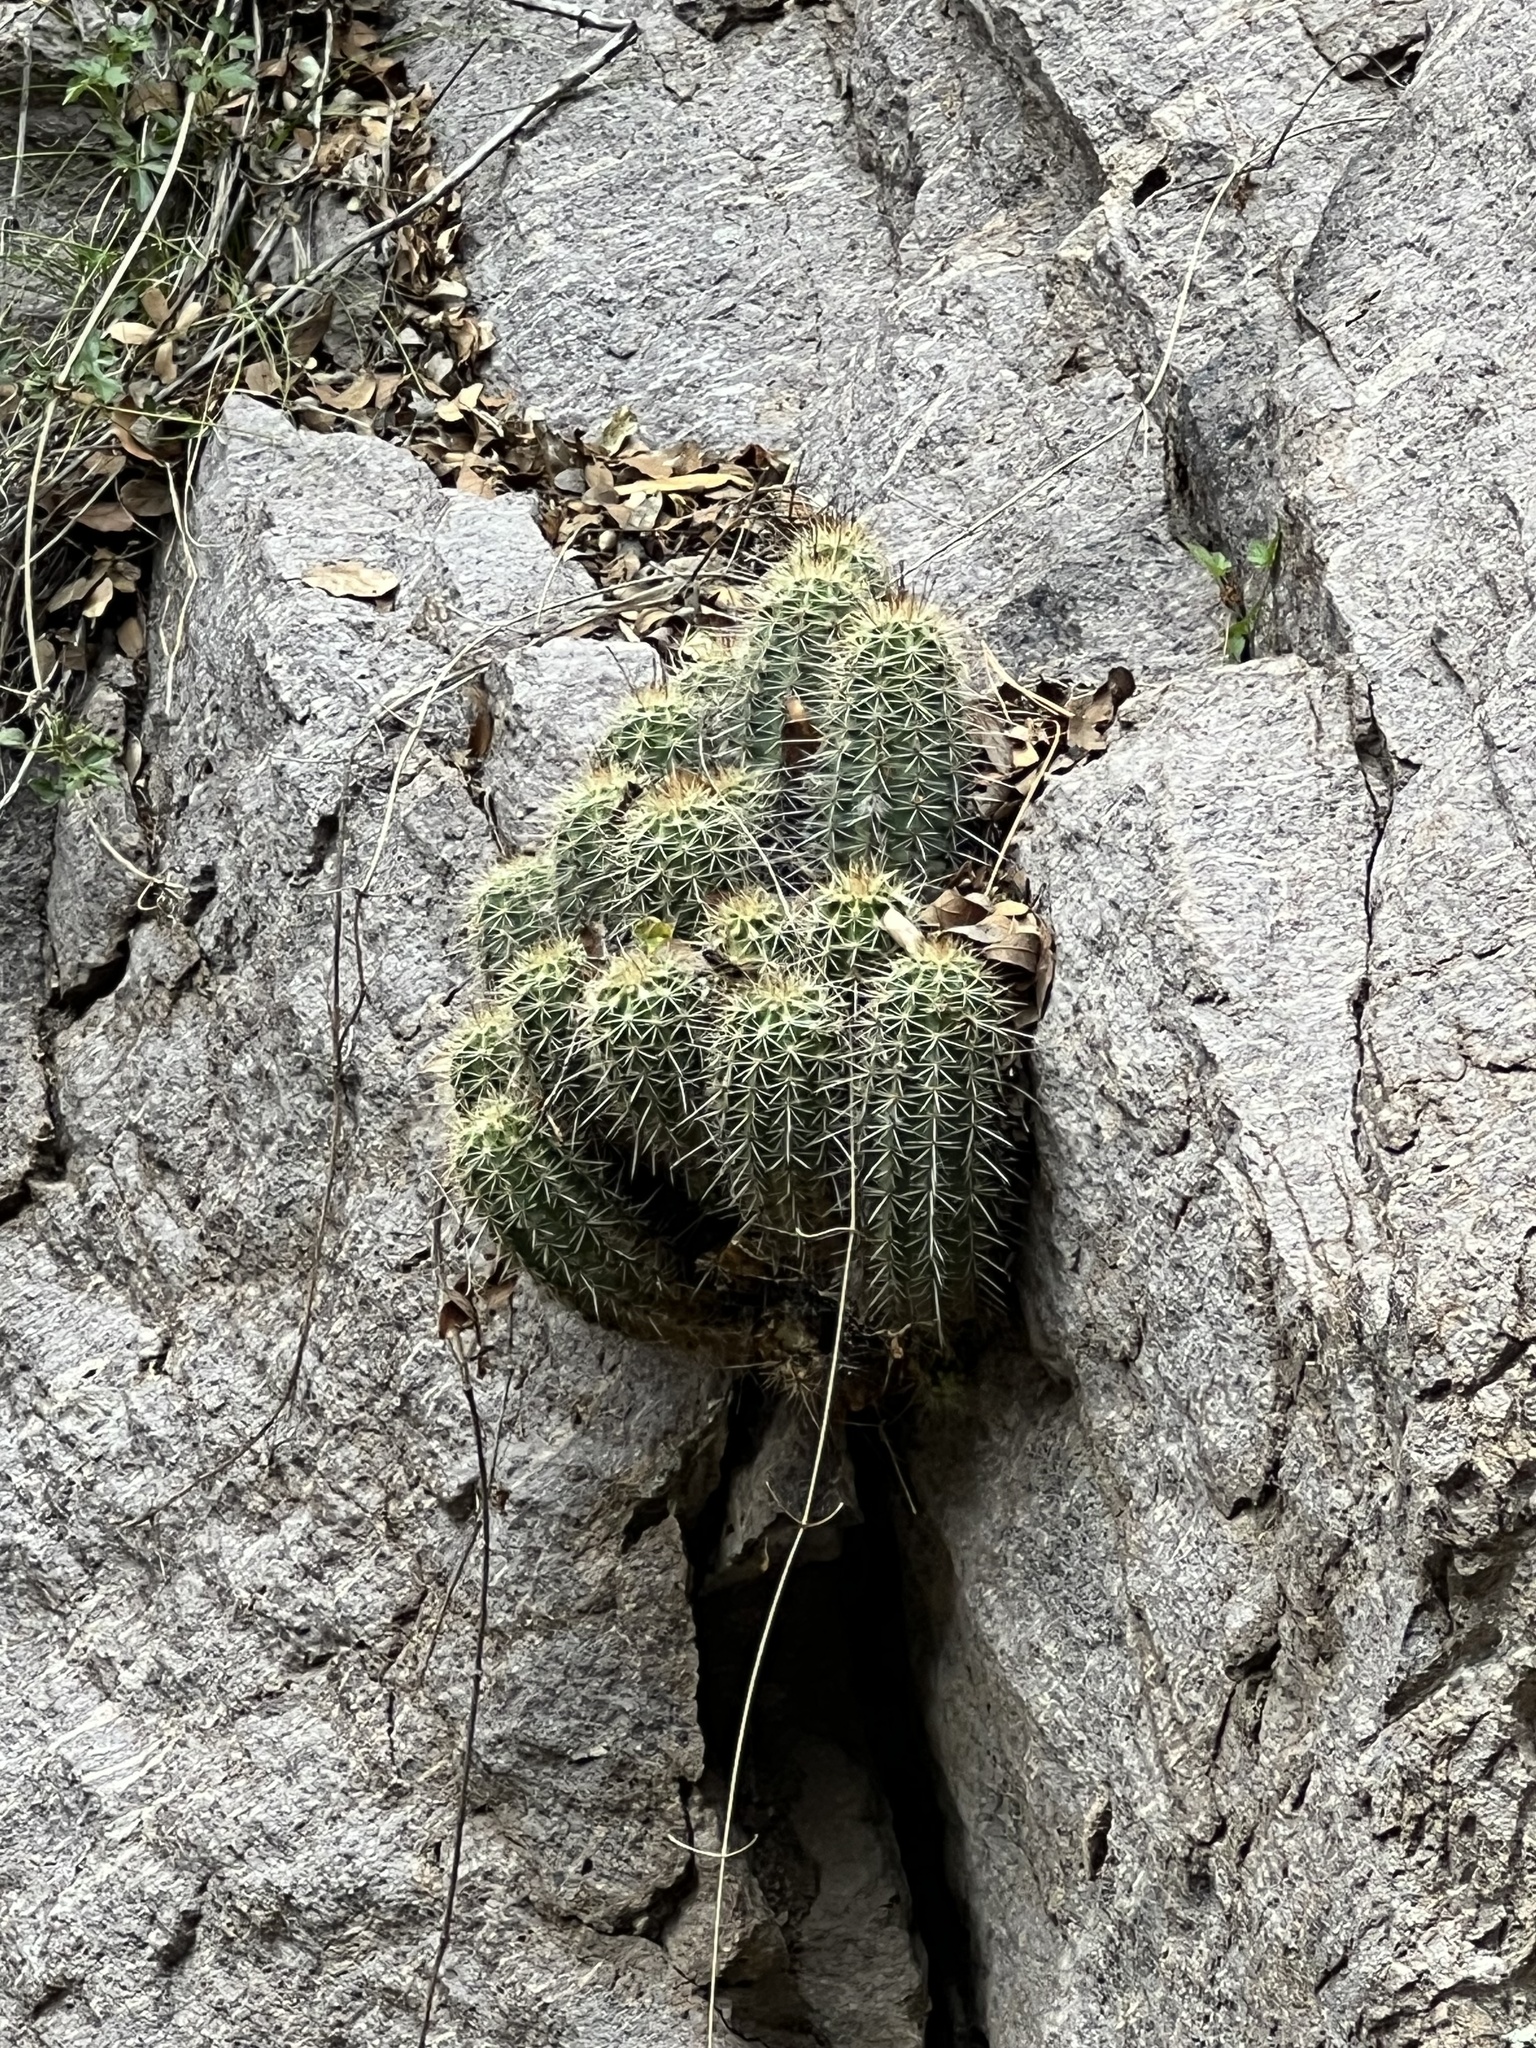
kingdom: Plantae
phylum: Tracheophyta
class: Magnoliopsida
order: Caryophyllales
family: Cactaceae
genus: Echinocereus
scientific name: Echinocereus coccineus
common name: Scarlet hedgehog cactus
